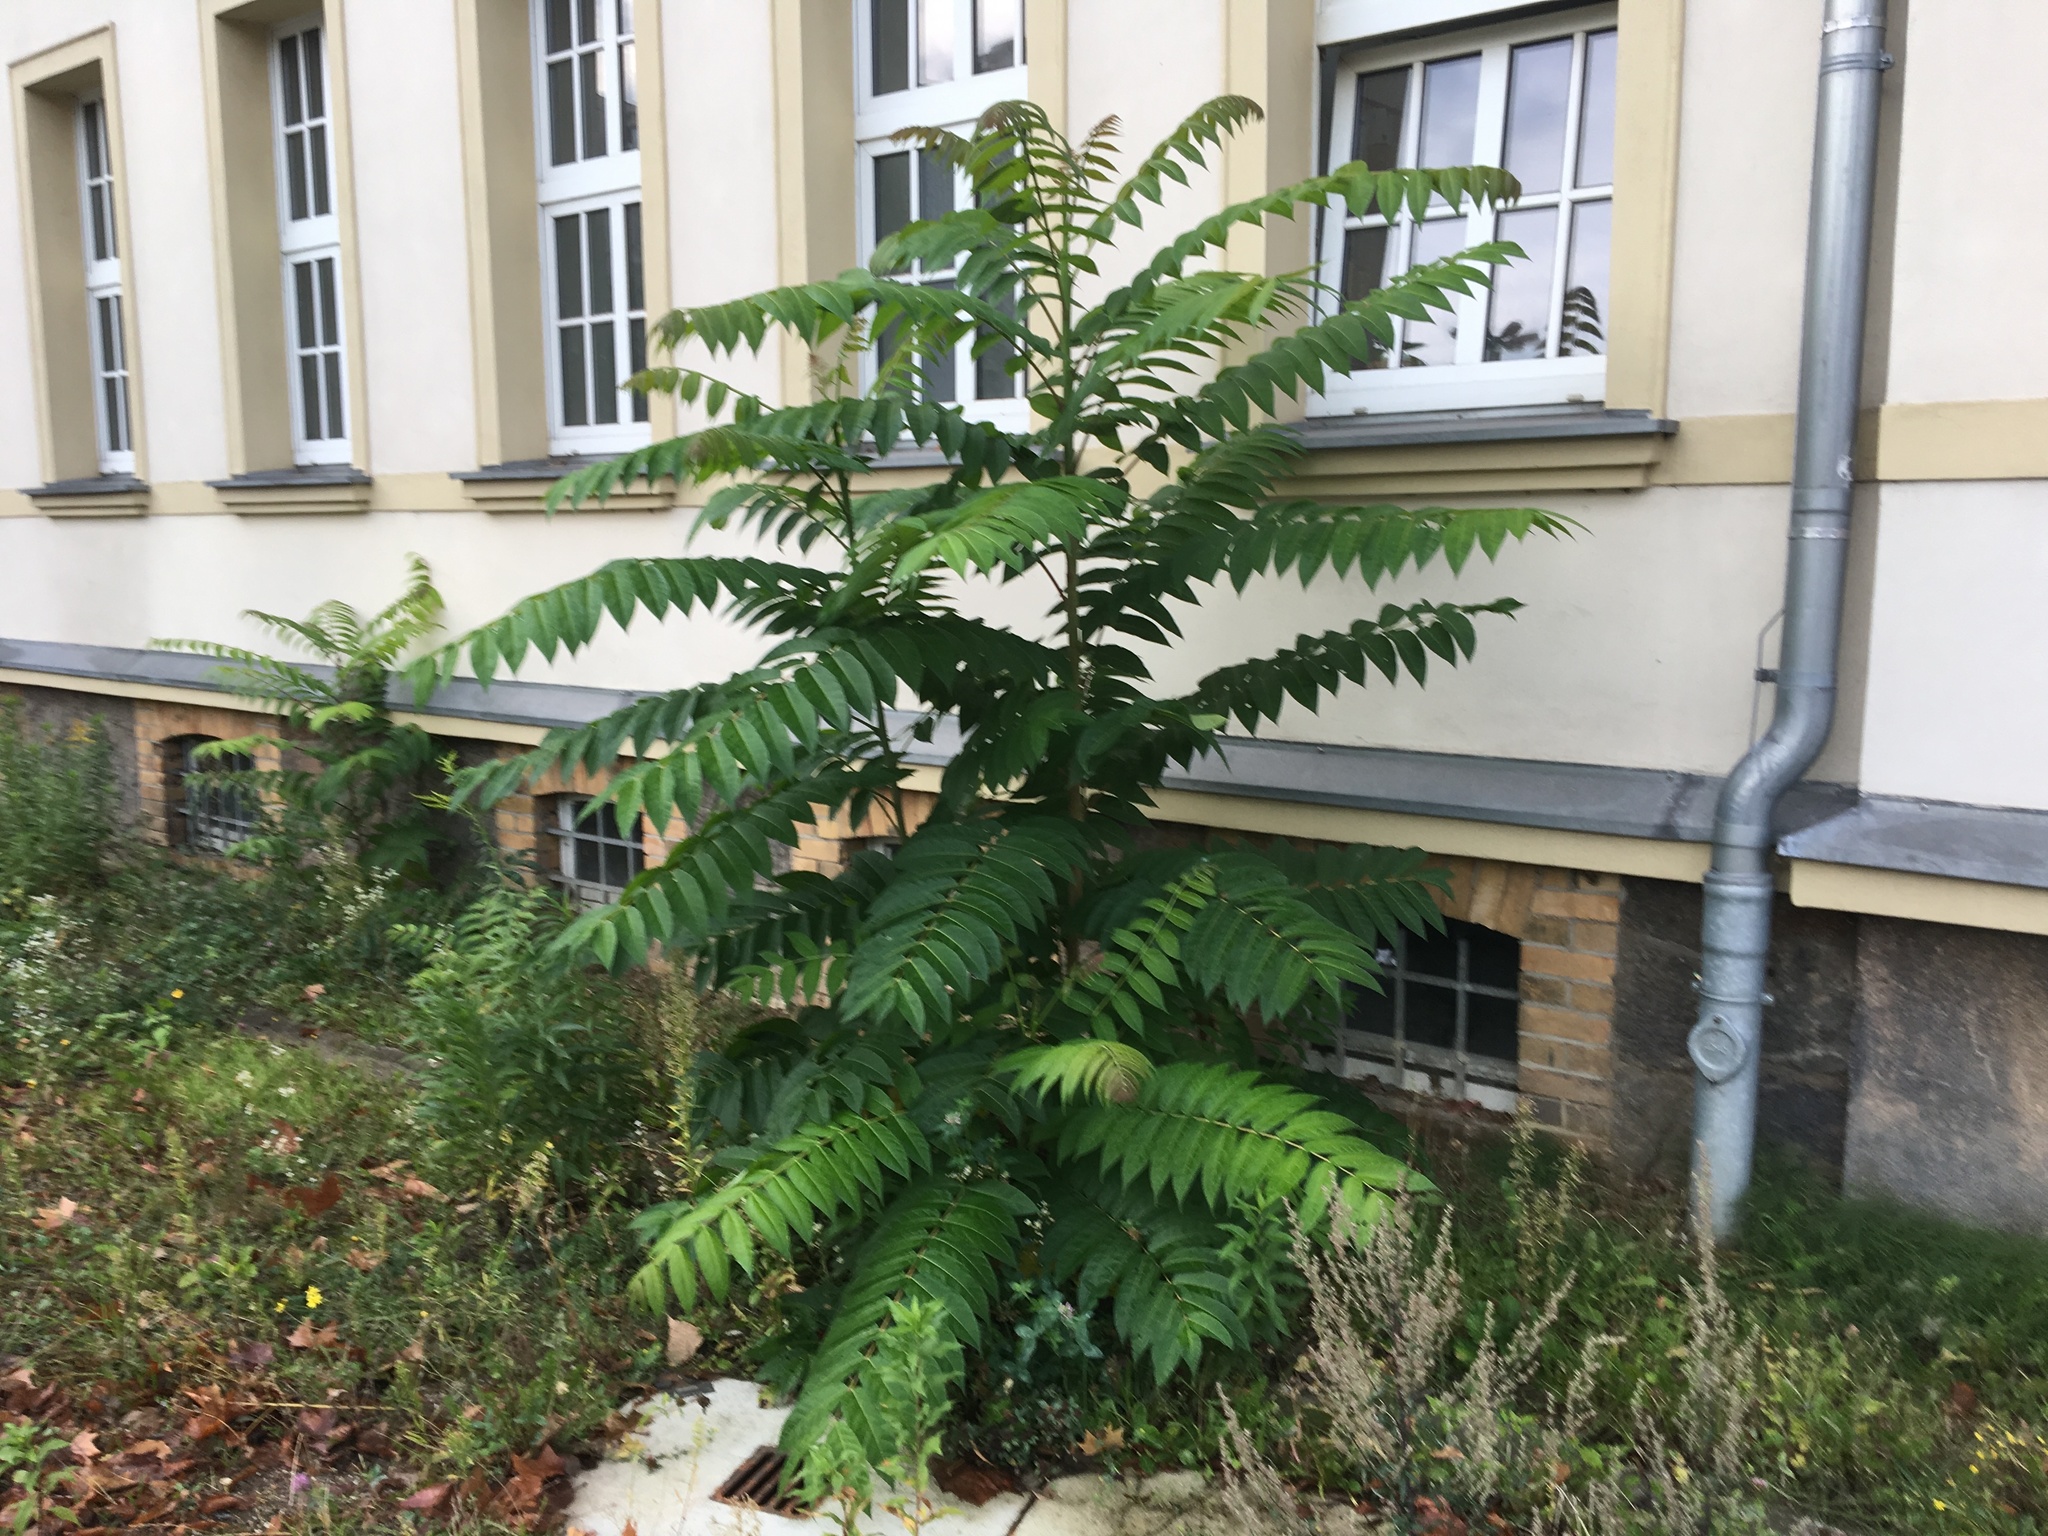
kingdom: Plantae
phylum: Tracheophyta
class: Magnoliopsida
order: Sapindales
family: Simaroubaceae
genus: Ailanthus
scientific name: Ailanthus altissima
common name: Tree-of-heaven
